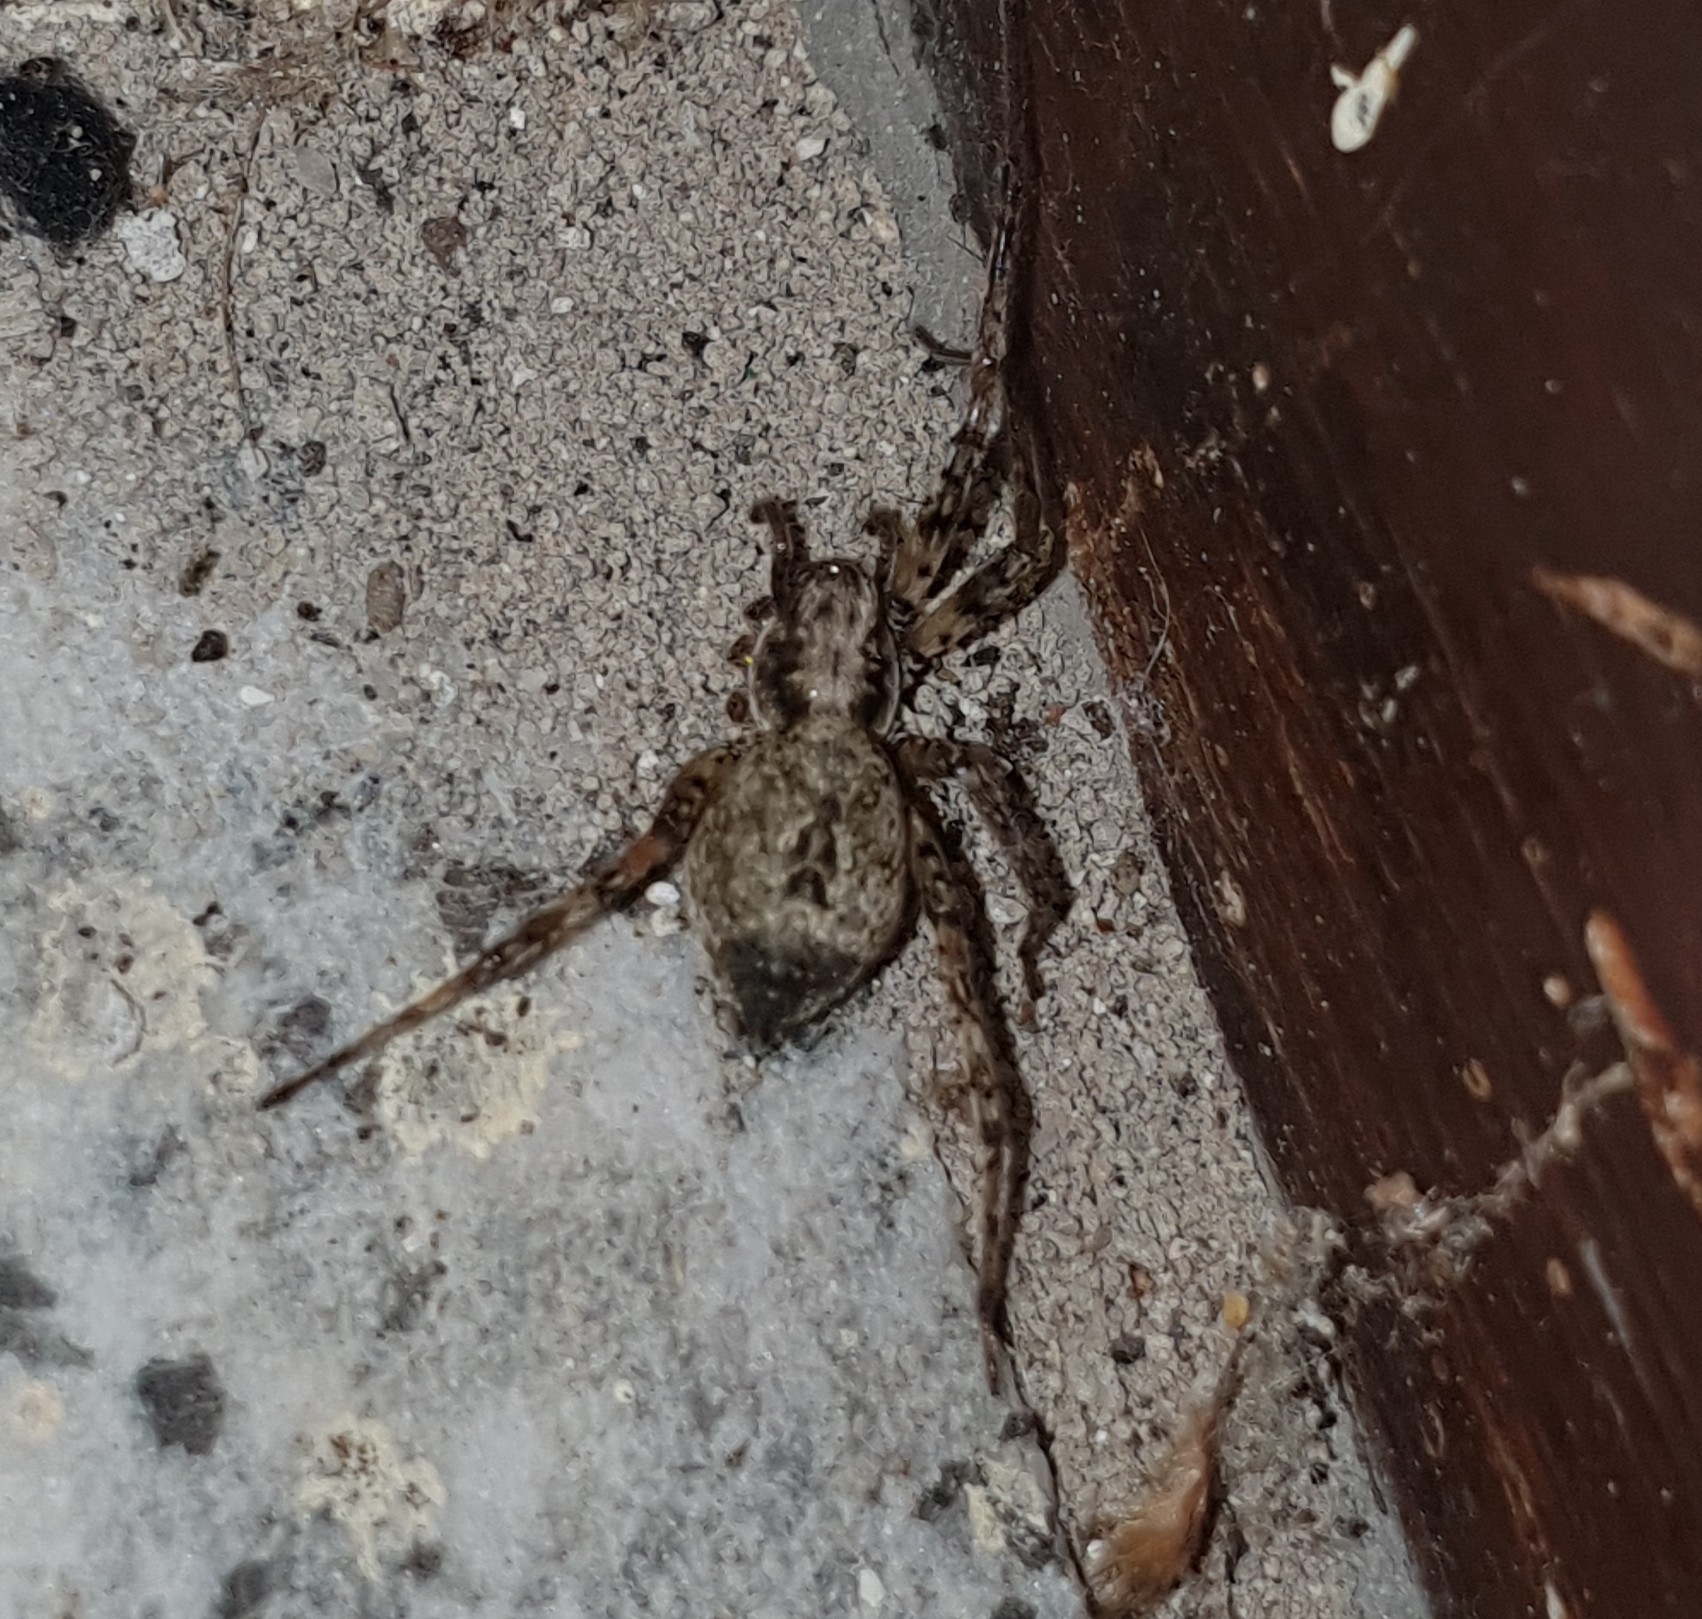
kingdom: Animalia
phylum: Arthropoda
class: Arachnida
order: Araneae
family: Anyphaenidae
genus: Anyphaena
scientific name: Anyphaena accentuata
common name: Buzzing spider
